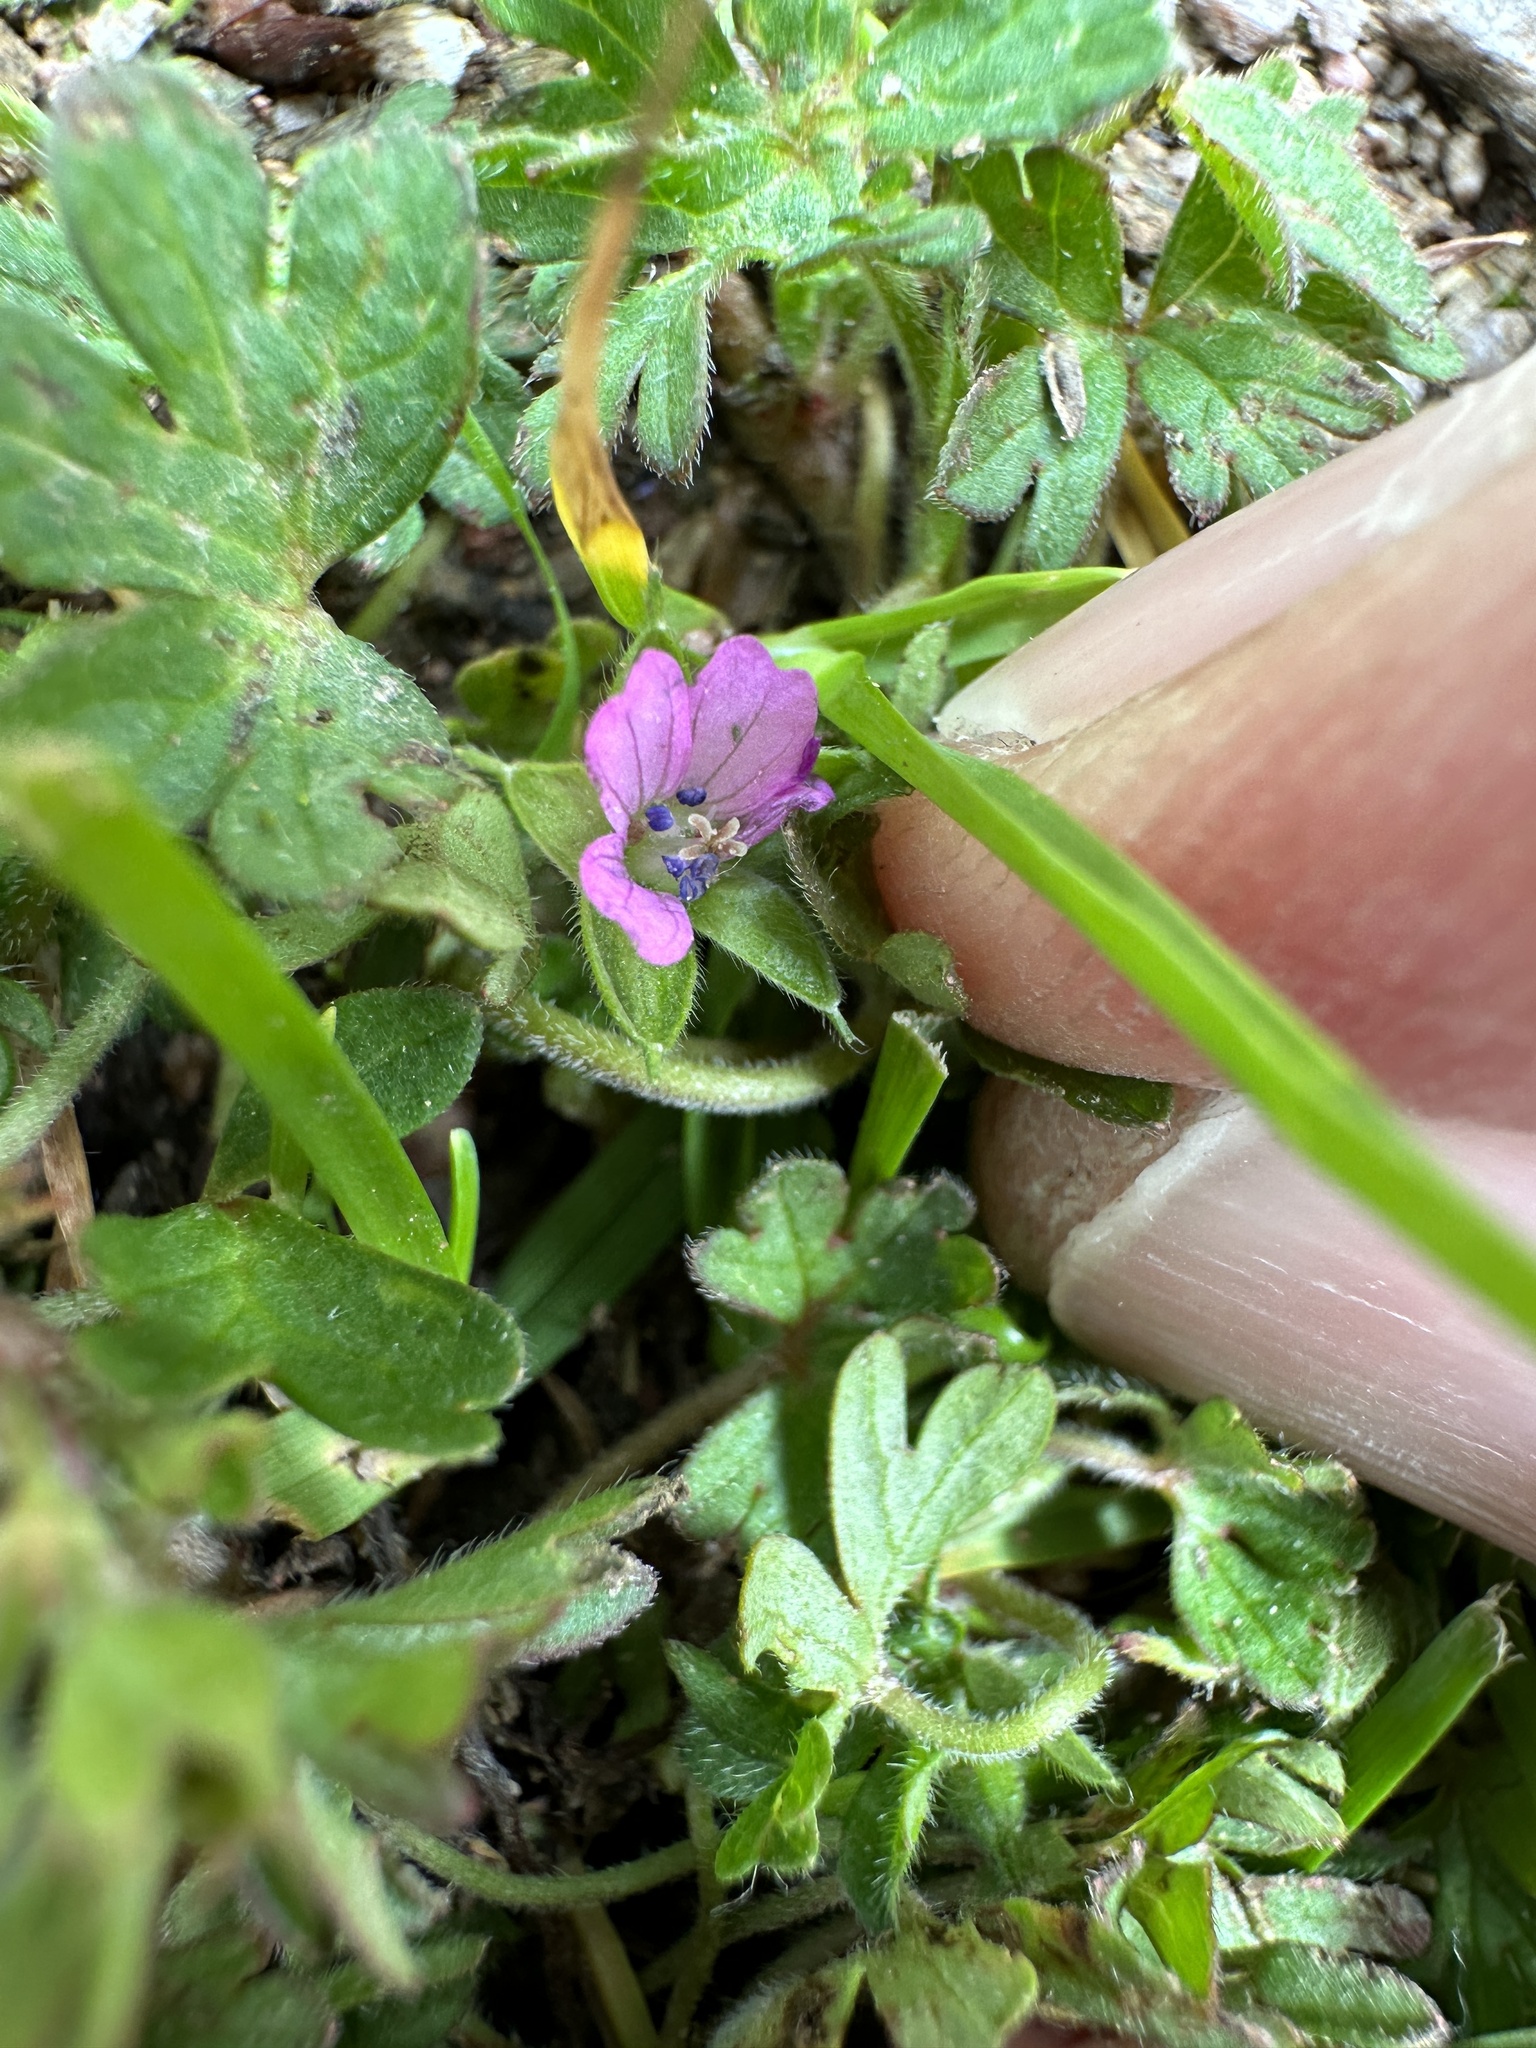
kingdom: Plantae
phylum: Tracheophyta
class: Magnoliopsida
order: Geraniales
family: Geraniaceae
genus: Geranium
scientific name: Geranium molle
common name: Dove's-foot crane's-bill
